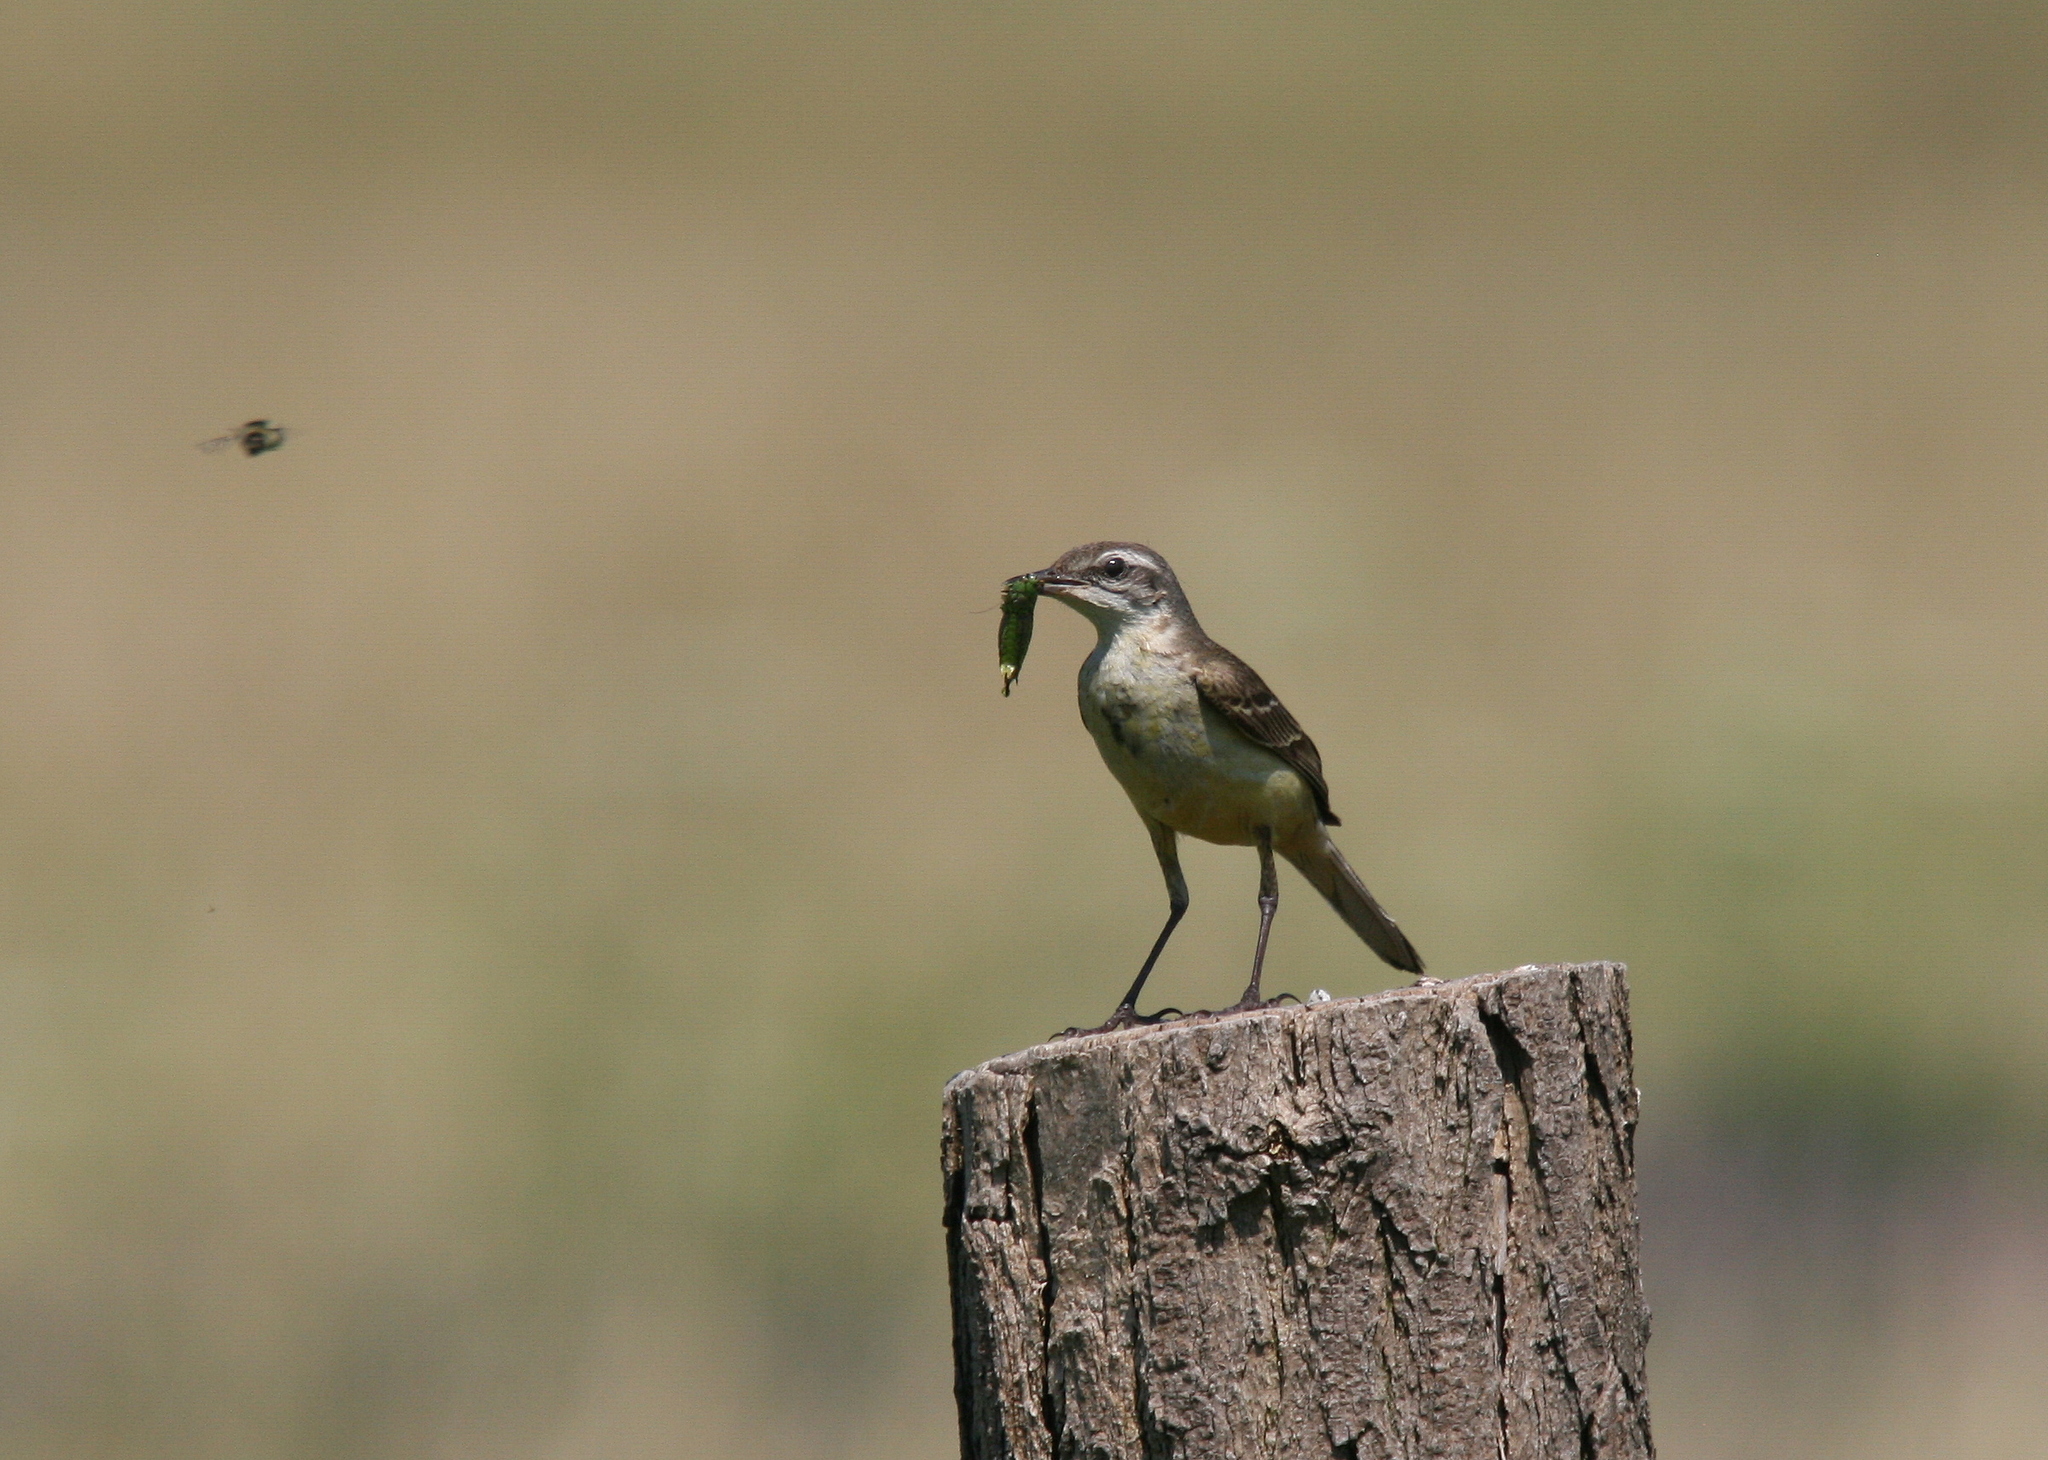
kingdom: Animalia
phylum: Chordata
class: Aves
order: Passeriformes
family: Motacillidae
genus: Motacilla
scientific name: Motacilla flava
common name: Western yellow wagtail
